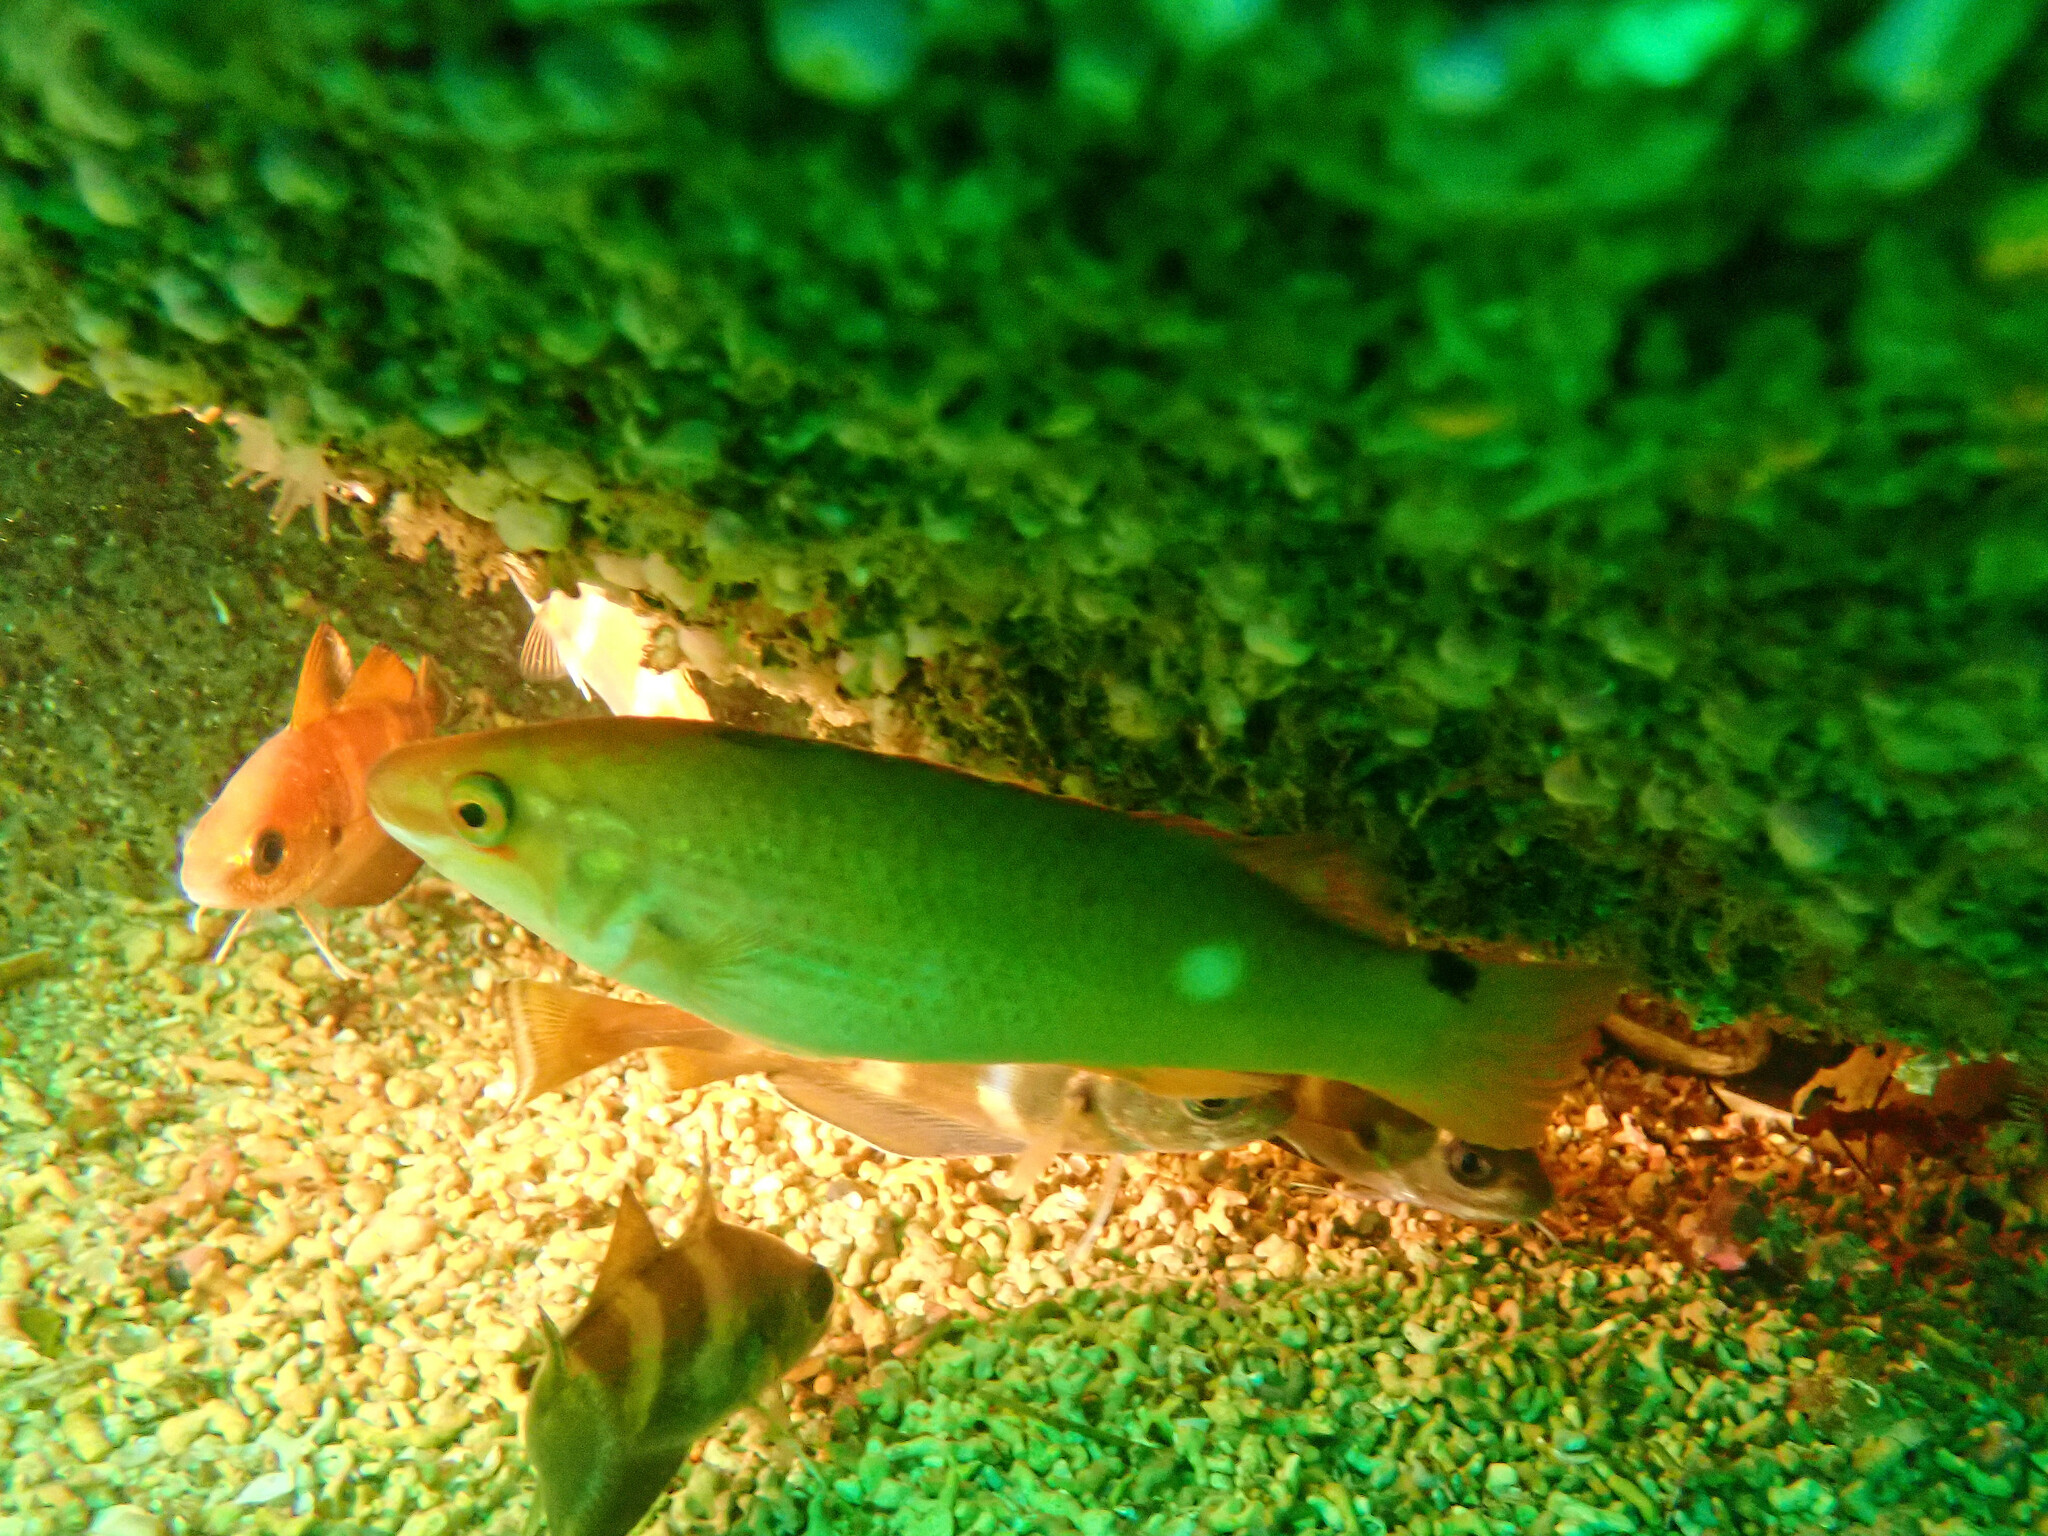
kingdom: Animalia
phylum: Chordata
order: Perciformes
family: Labridae
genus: Ctenolabrus
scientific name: Ctenolabrus rupestris
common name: Goldsinny
